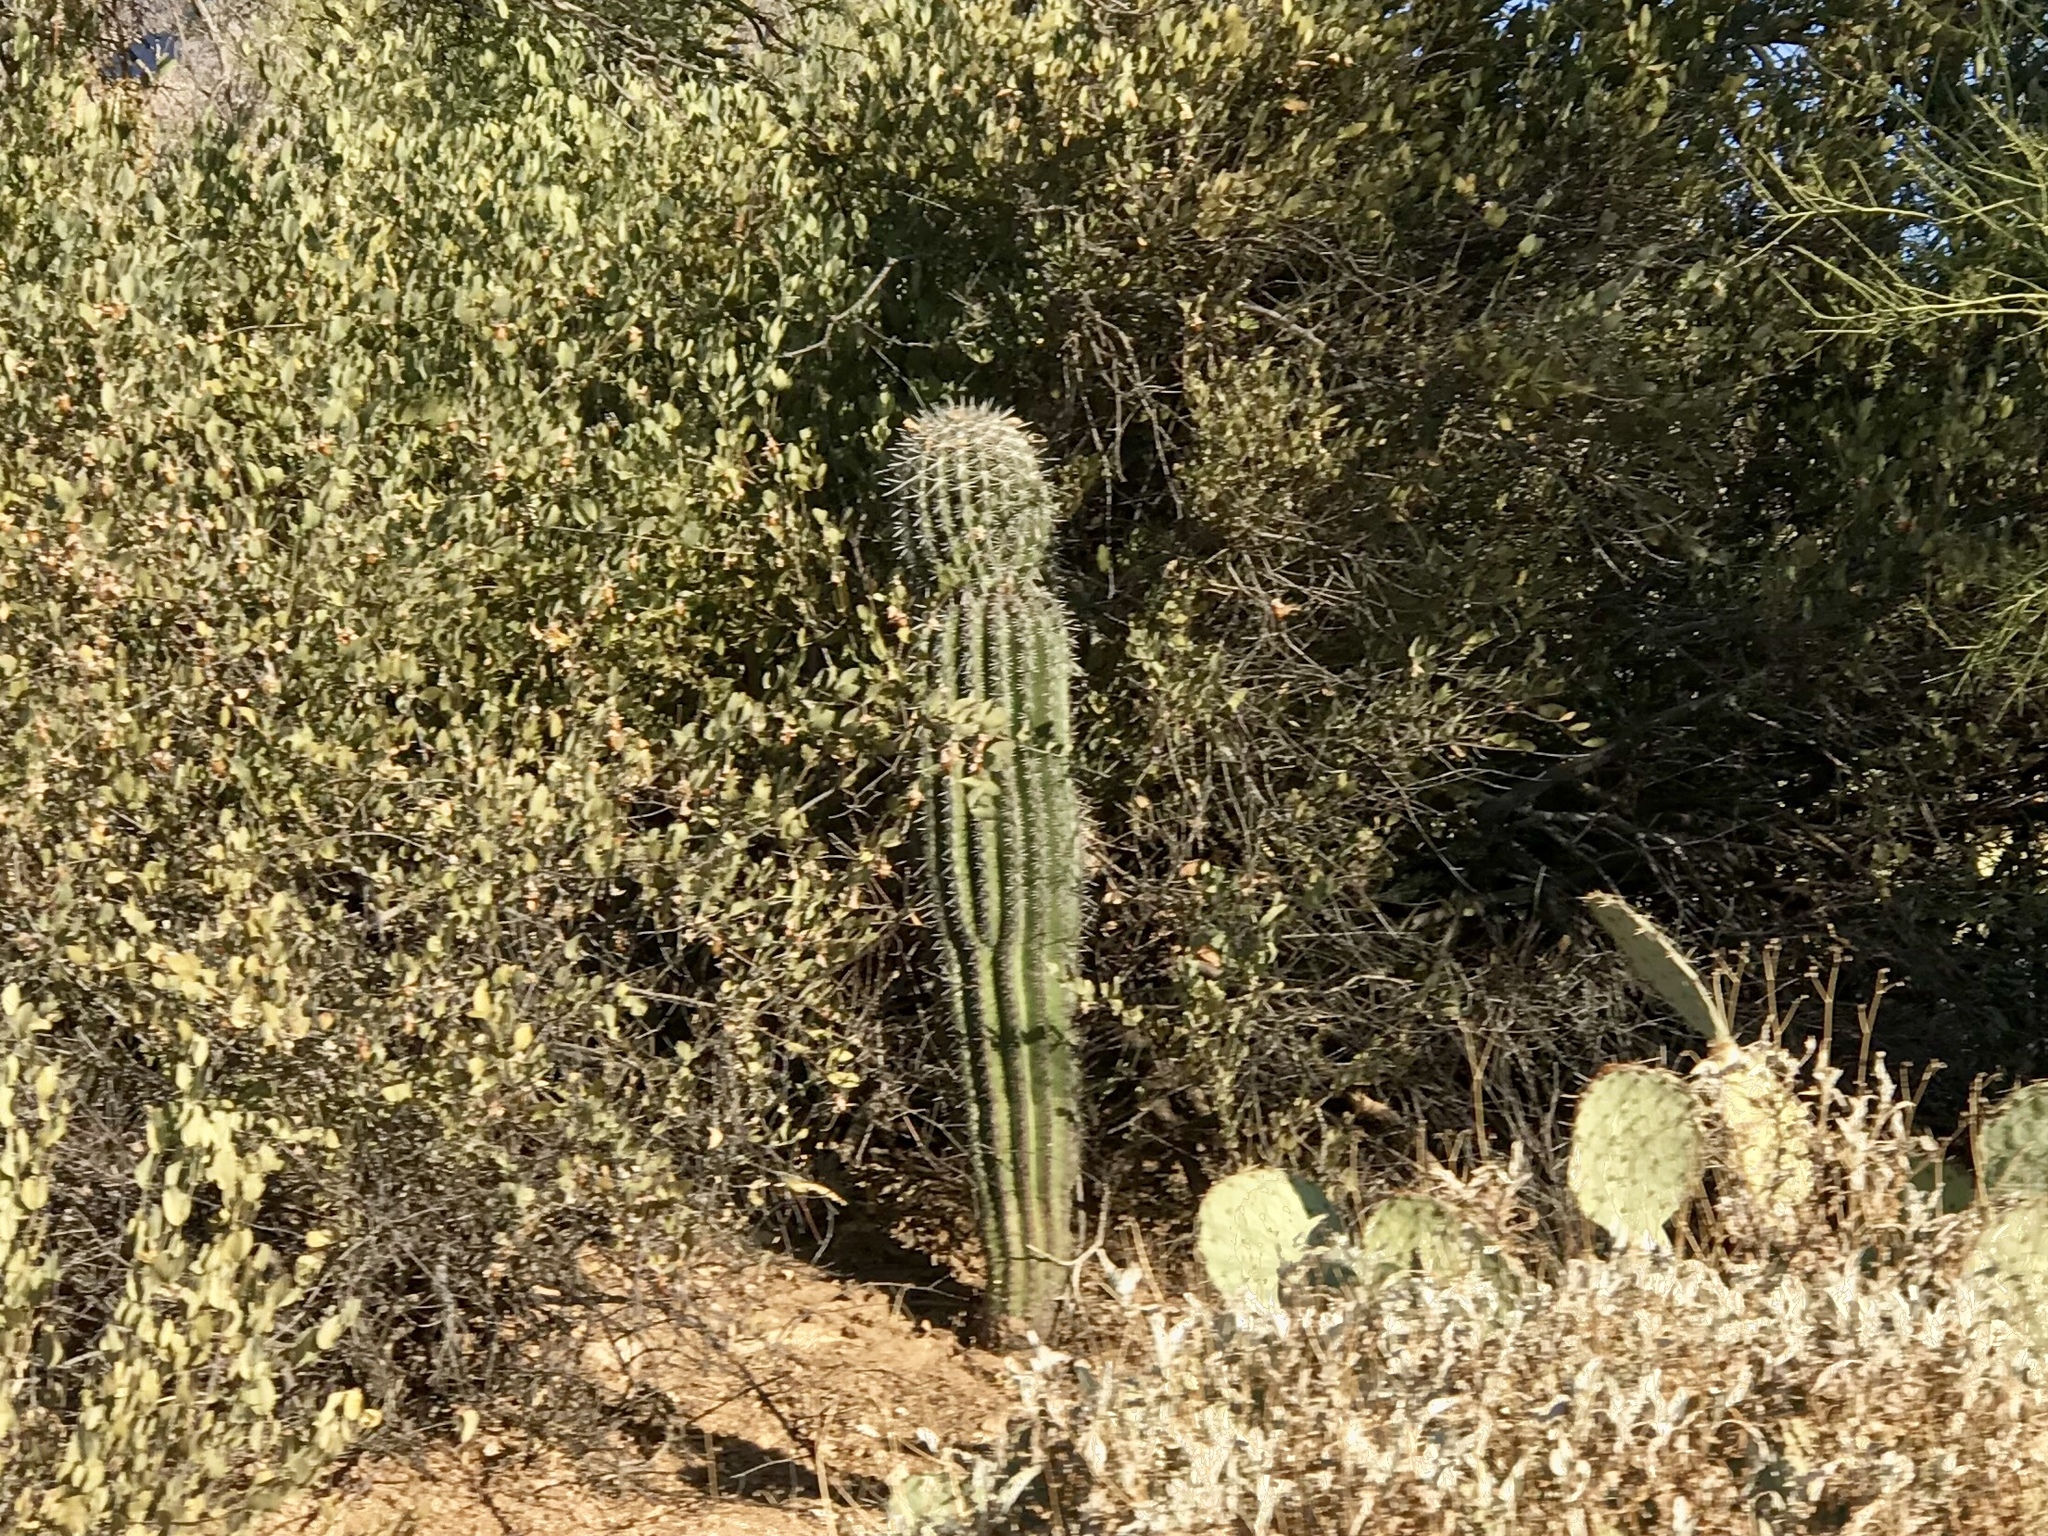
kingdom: Plantae
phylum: Tracheophyta
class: Magnoliopsida
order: Caryophyllales
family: Cactaceae
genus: Carnegiea
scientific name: Carnegiea gigantea
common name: Saguaro
